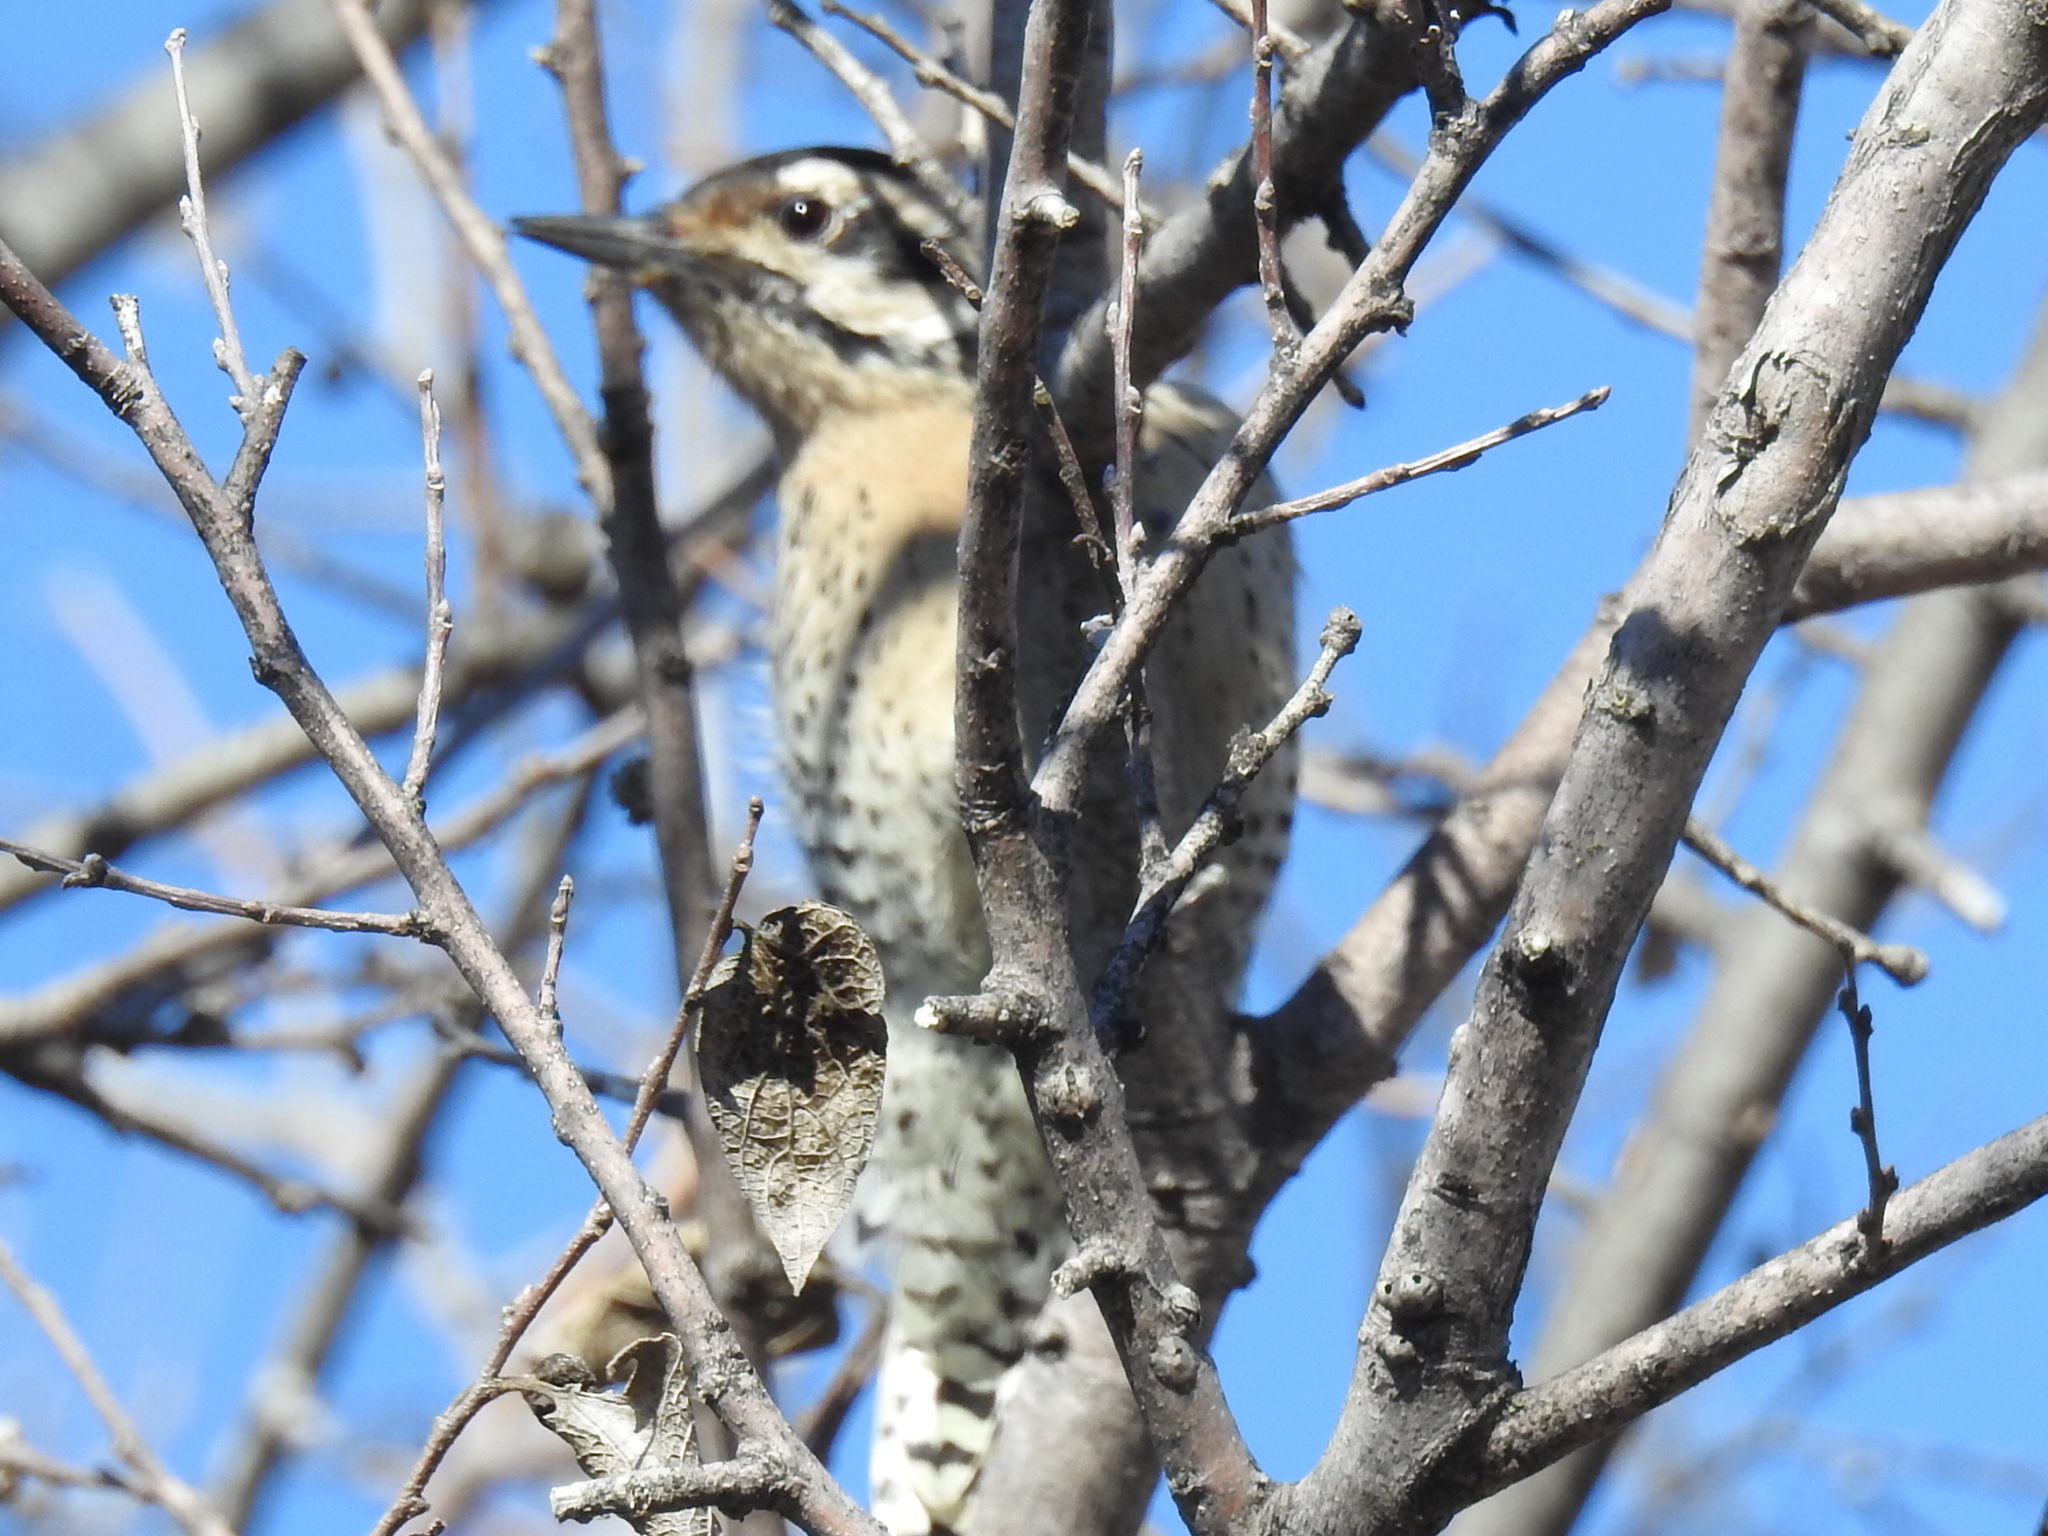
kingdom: Animalia
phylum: Chordata
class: Aves
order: Piciformes
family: Picidae
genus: Dryobates
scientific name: Dryobates scalaris
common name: Ladder-backed woodpecker
